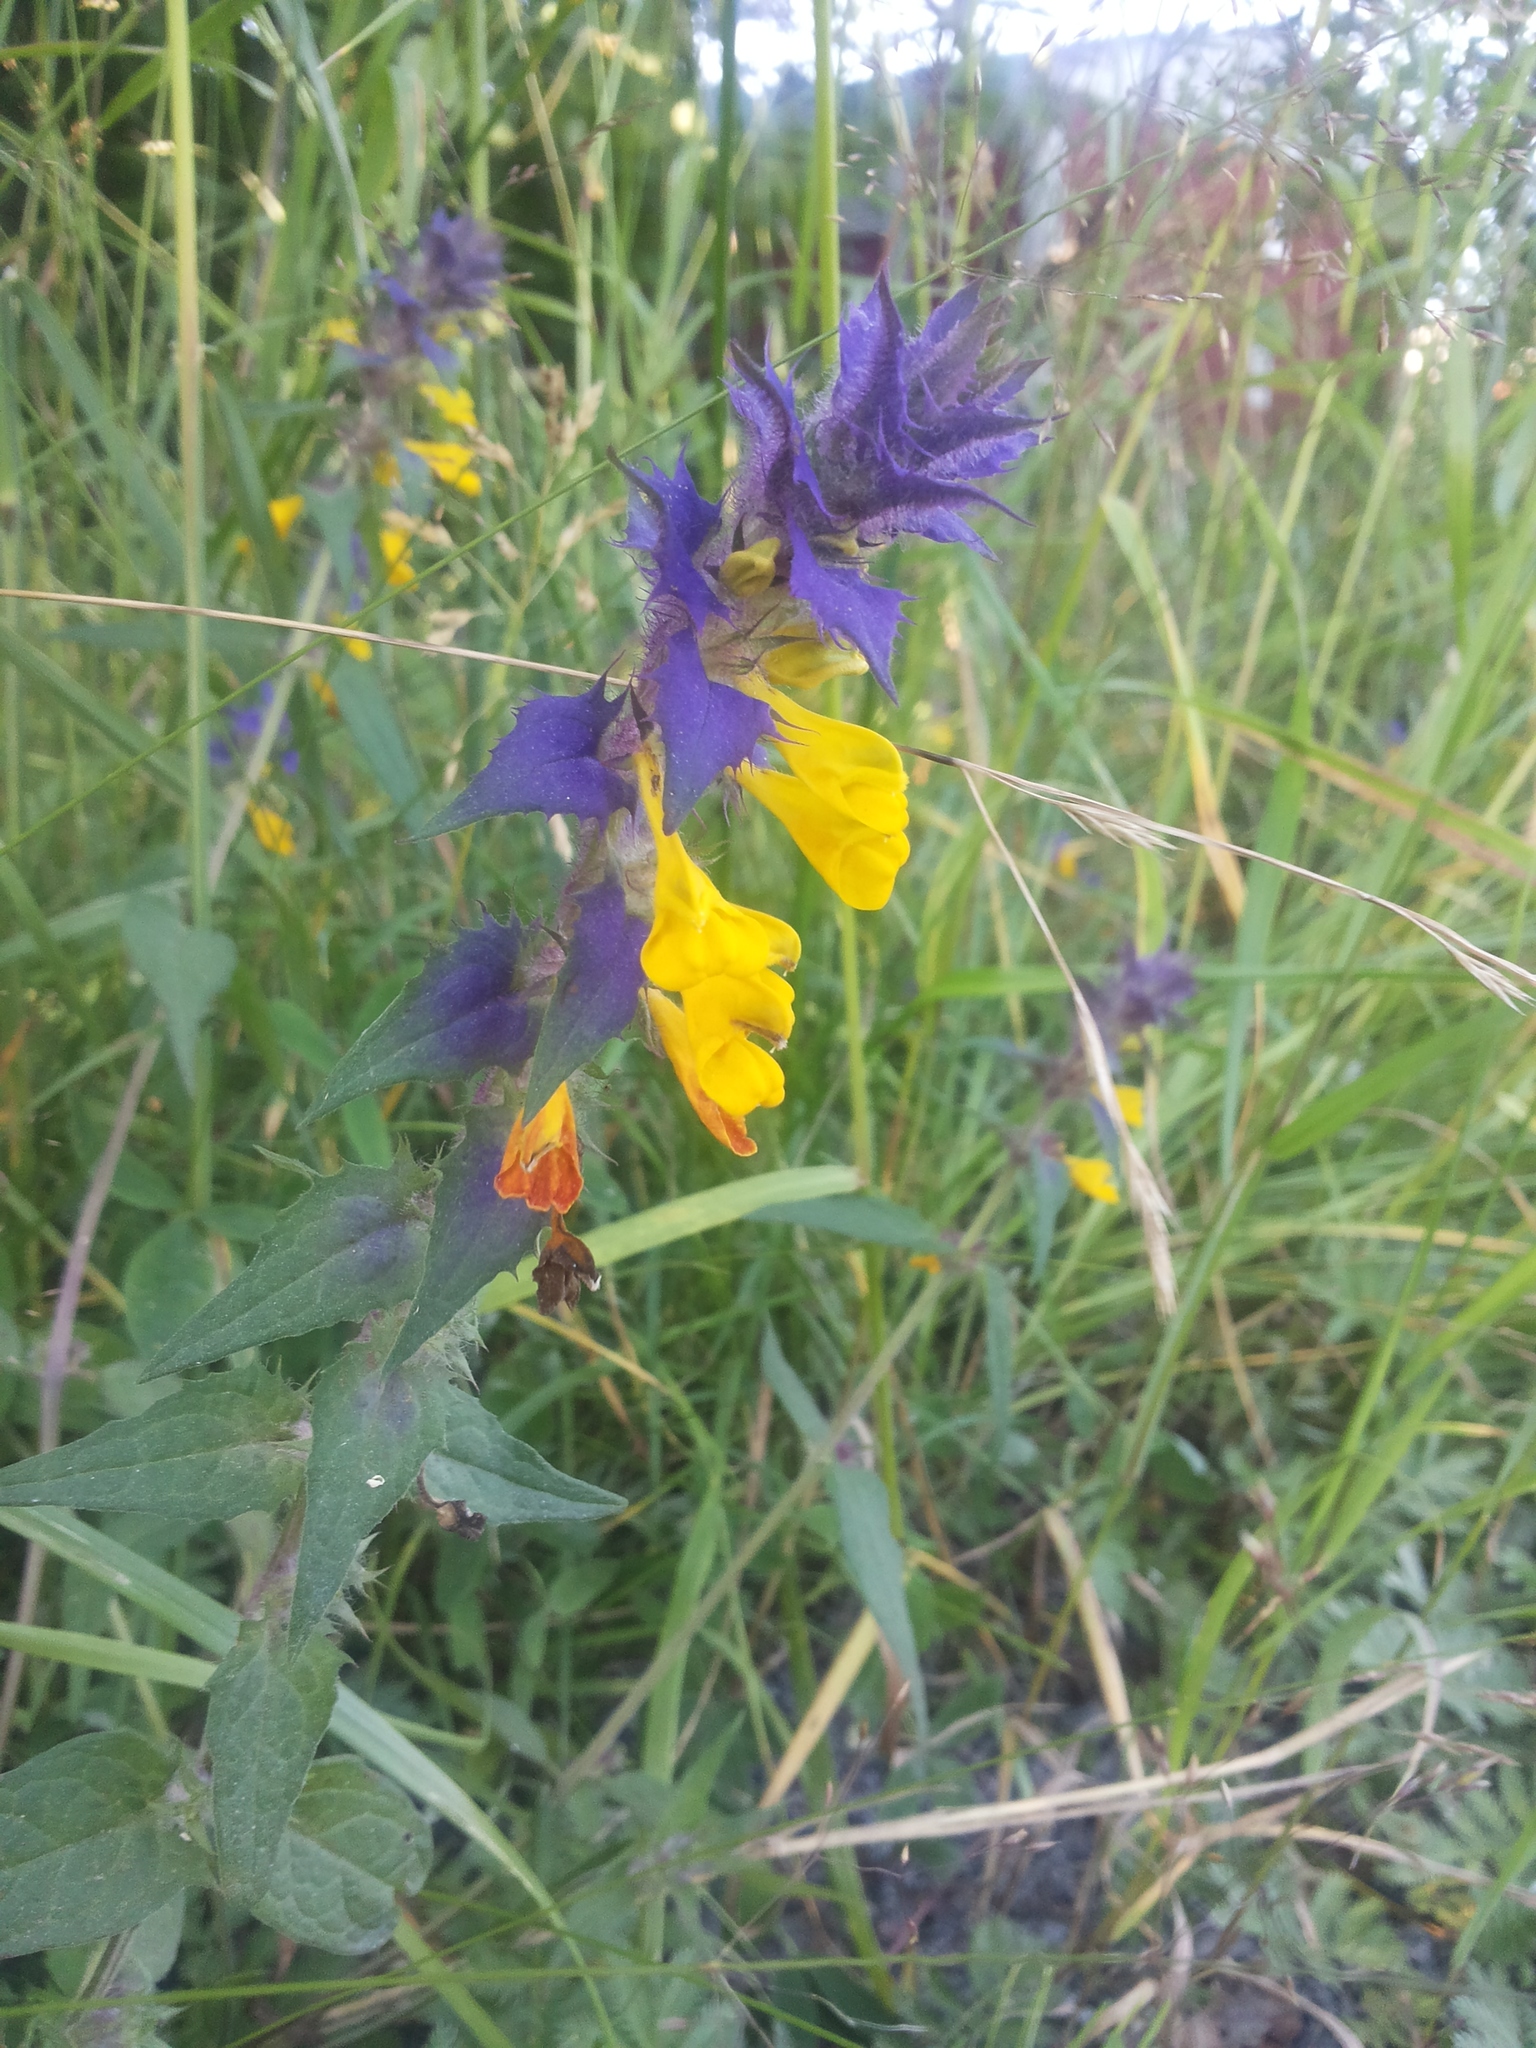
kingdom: Plantae
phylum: Tracheophyta
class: Magnoliopsida
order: Lamiales
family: Orobanchaceae
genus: Melampyrum
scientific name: Melampyrum nemorosum
